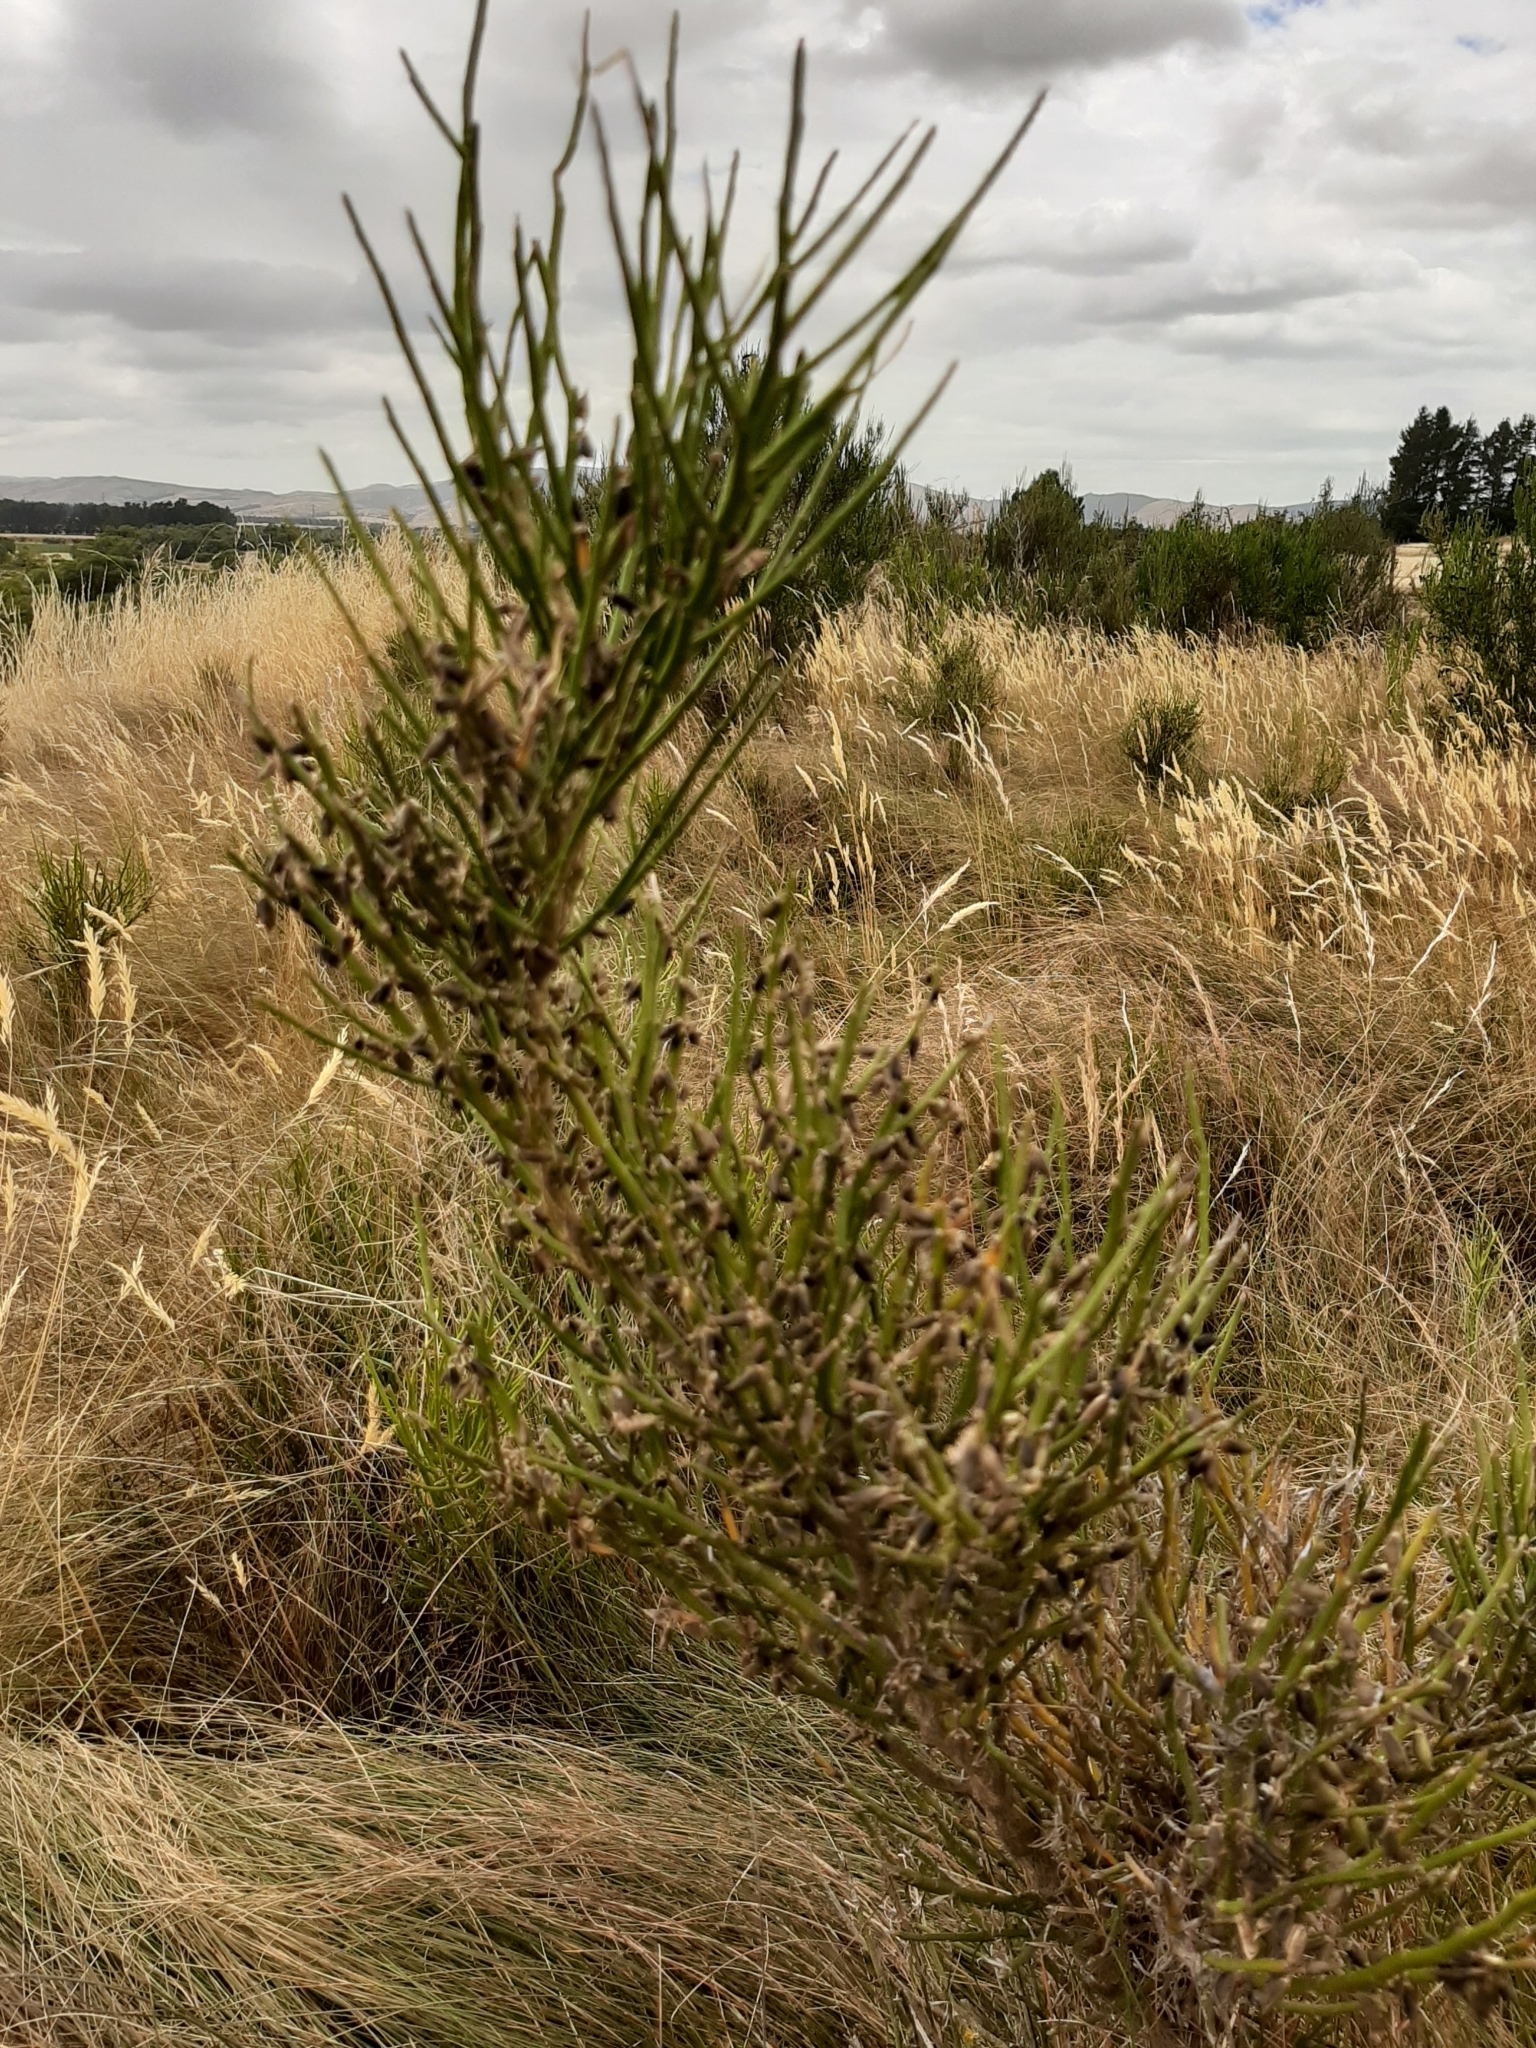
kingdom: Plantae
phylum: Tracheophyta
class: Magnoliopsida
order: Fabales
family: Fabaceae
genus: Carmichaelia
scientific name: Carmichaelia australis
